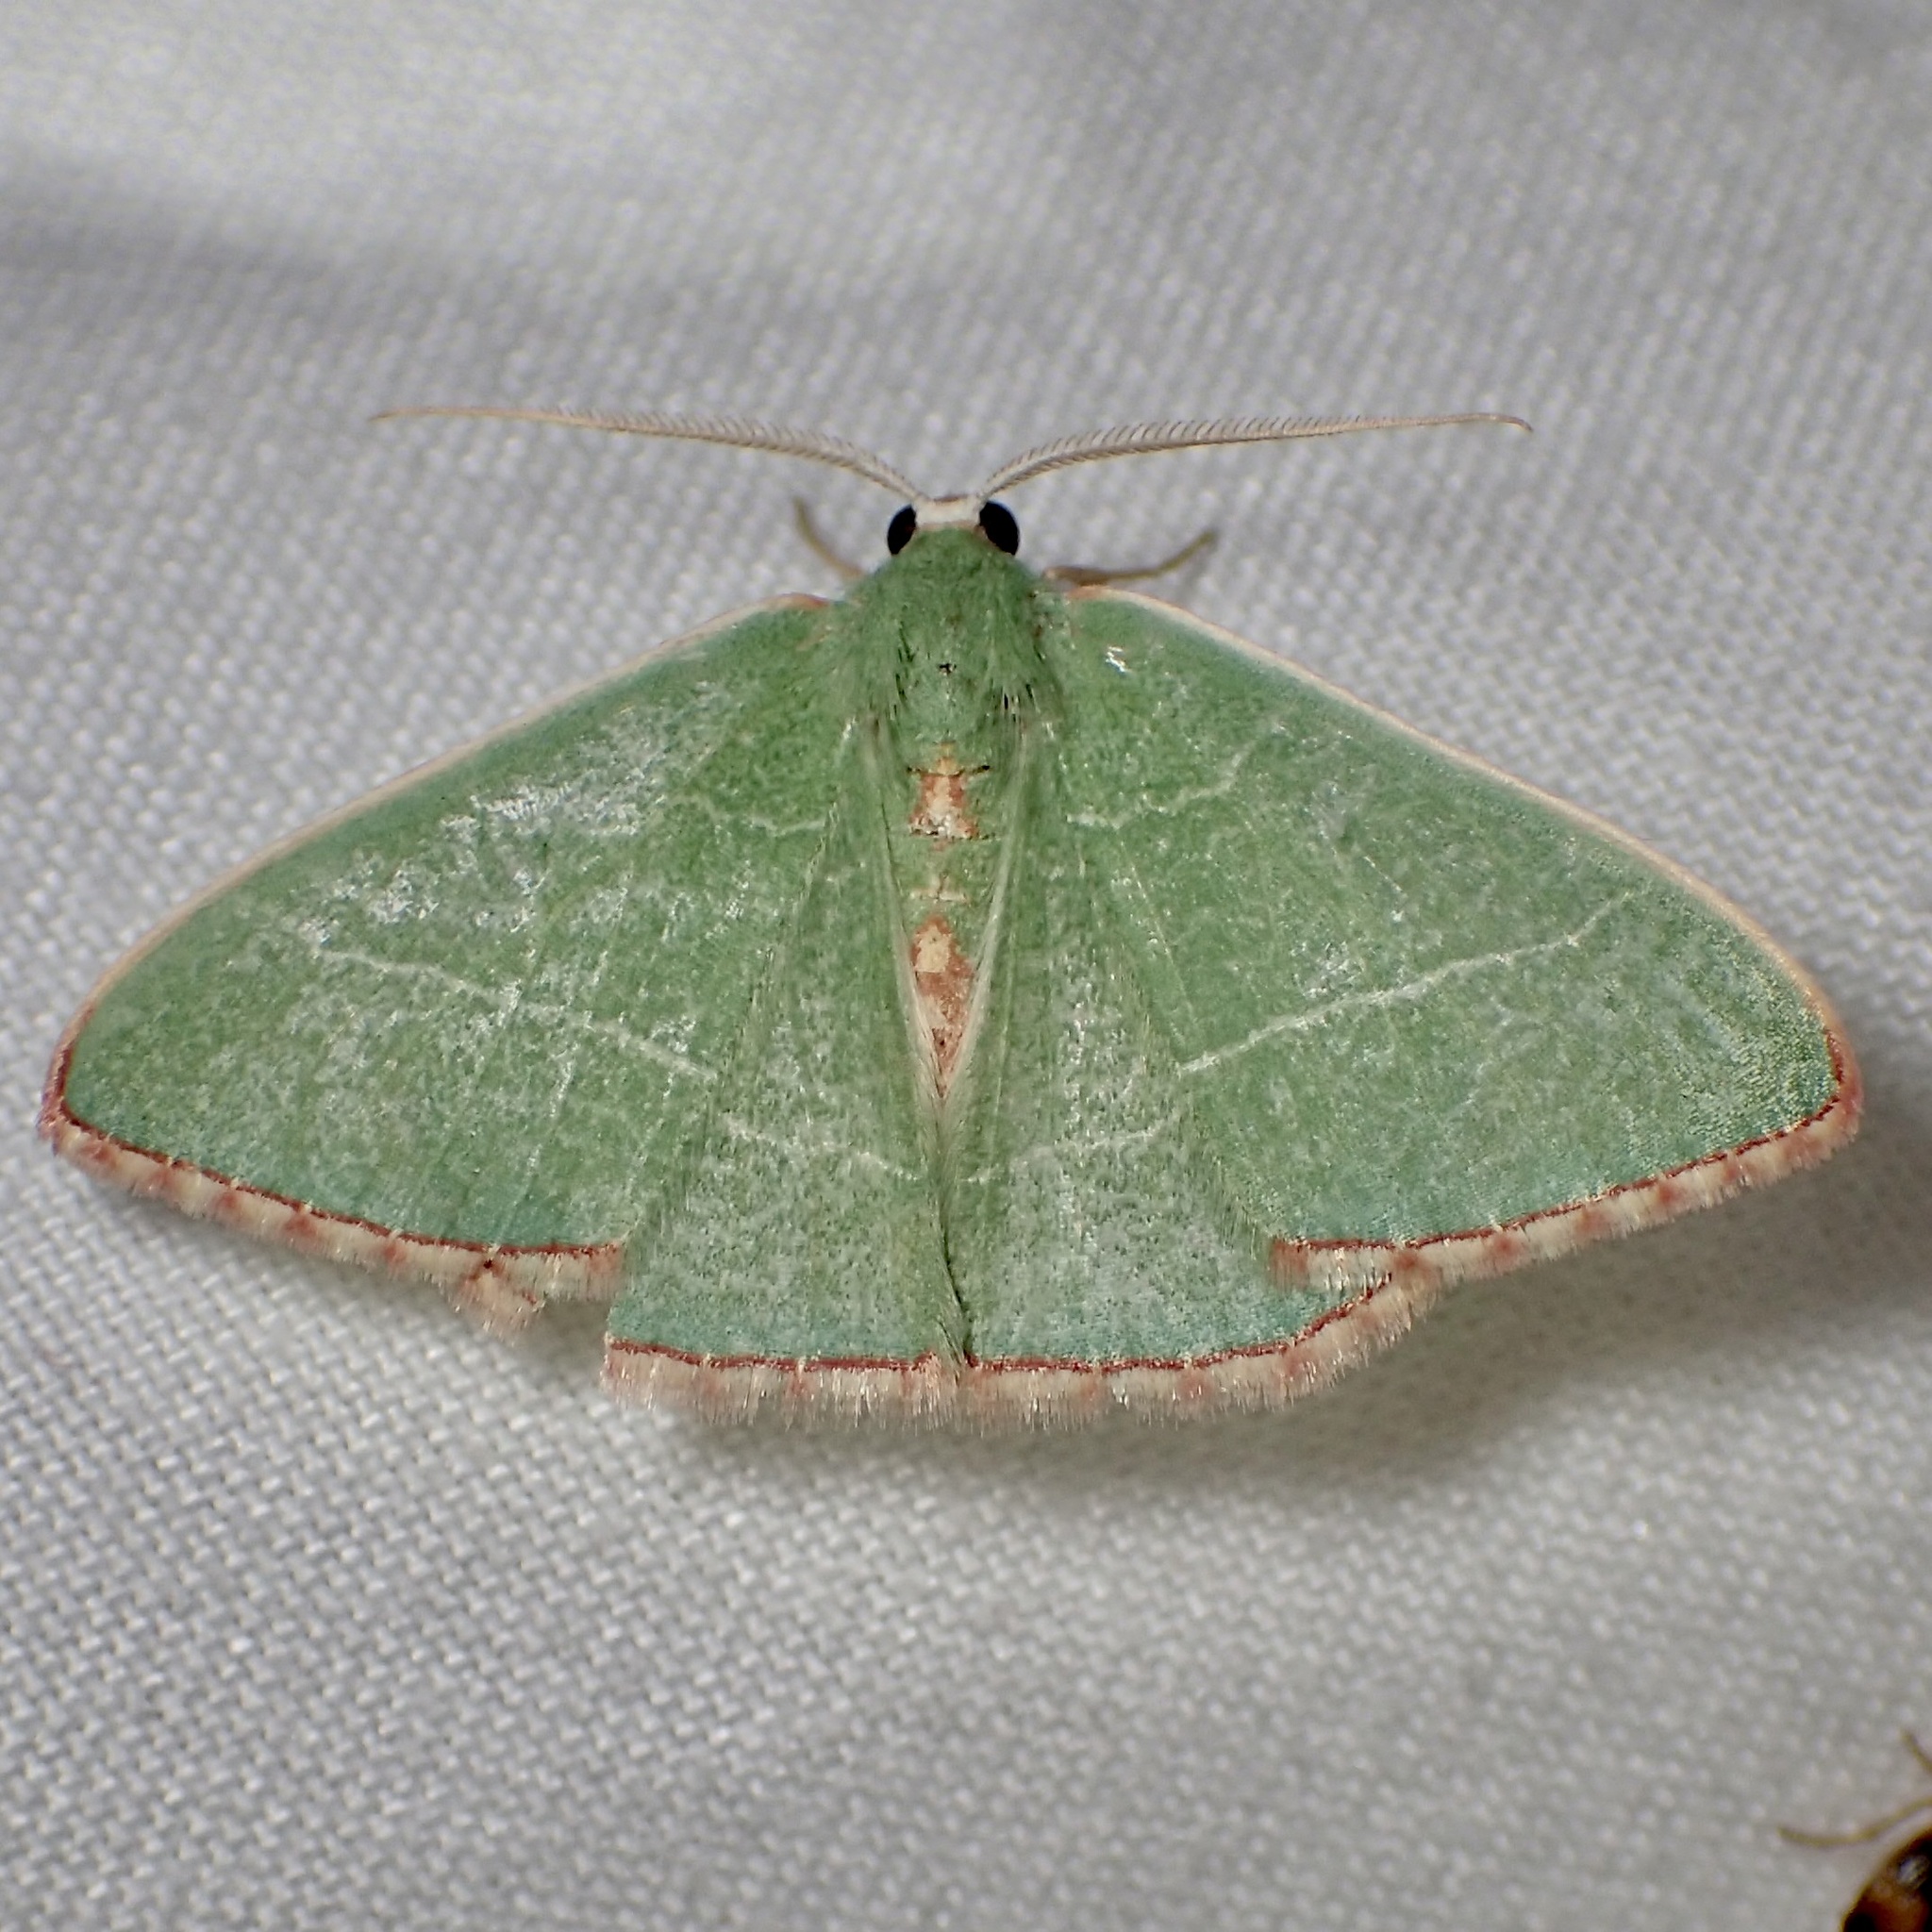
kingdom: Animalia
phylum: Arthropoda
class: Insecta
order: Lepidoptera
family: Geometridae
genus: Nemoria
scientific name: Nemoria festaria
